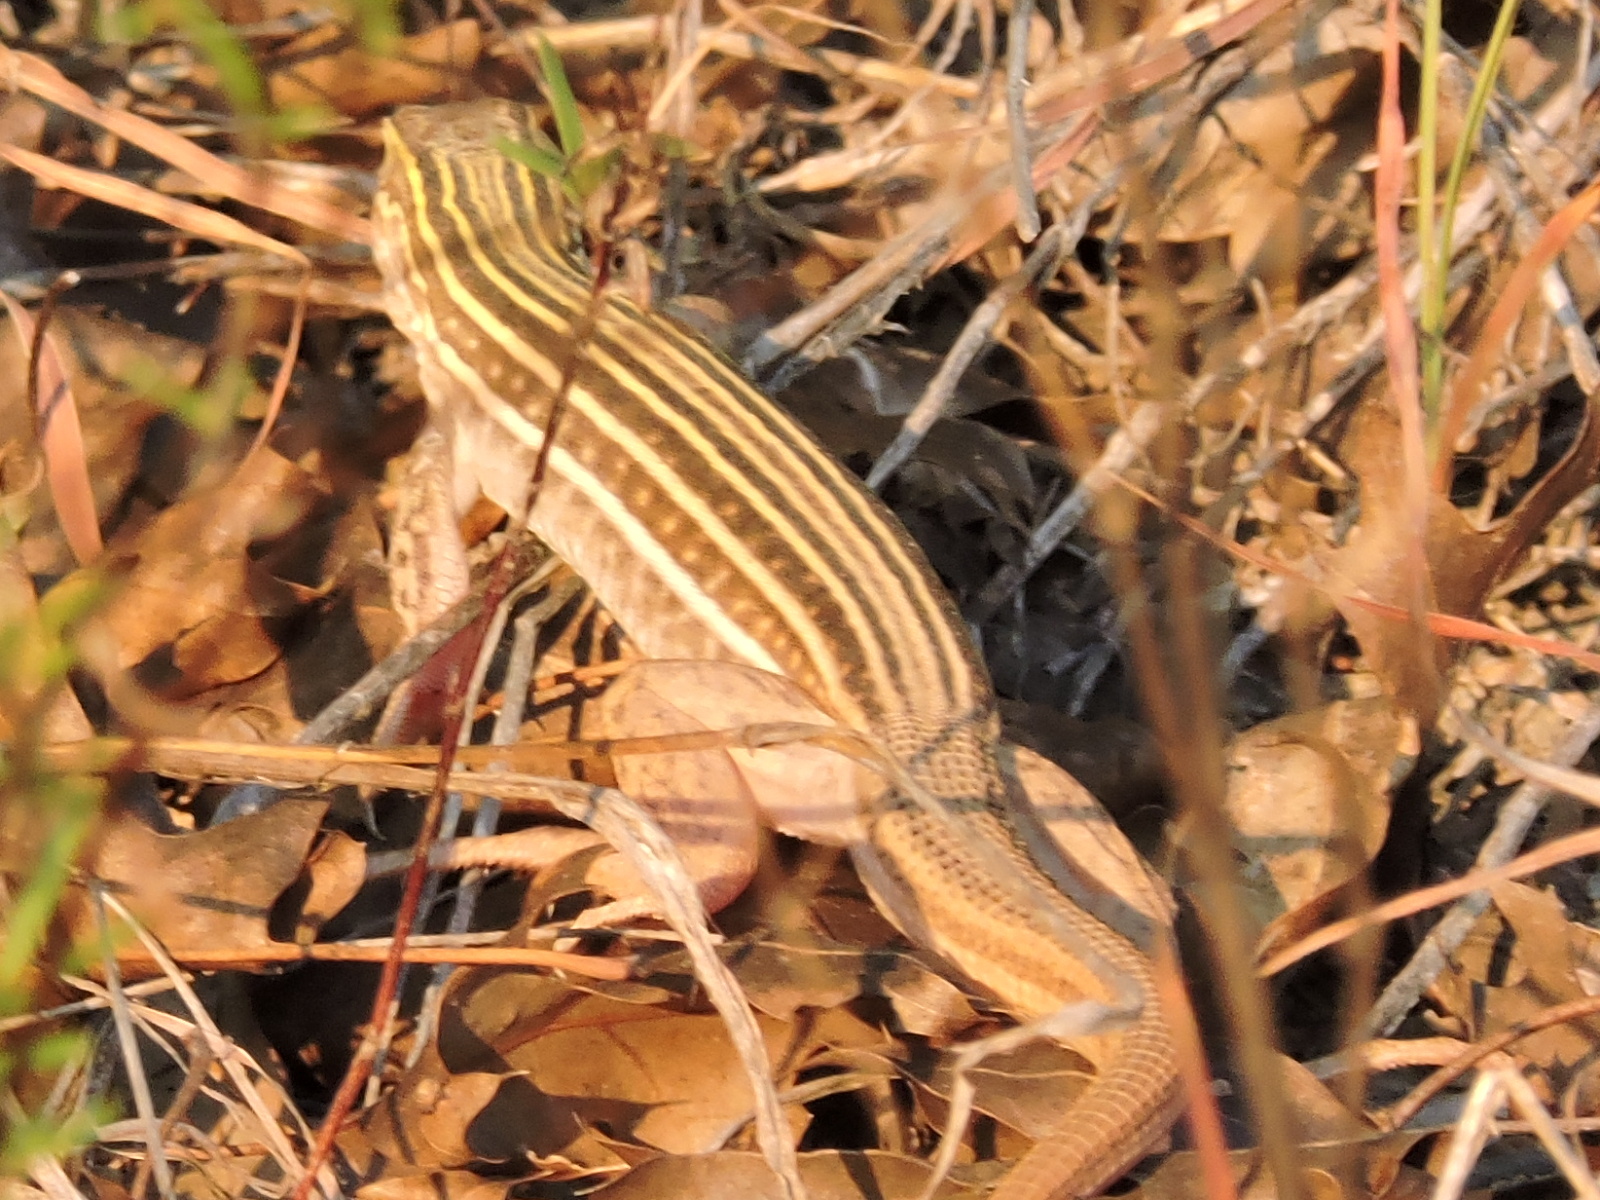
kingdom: Animalia
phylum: Chordata
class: Squamata
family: Teiidae
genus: Aspidoscelis
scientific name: Aspidoscelis gularis
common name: Eastern spotted whiptail
